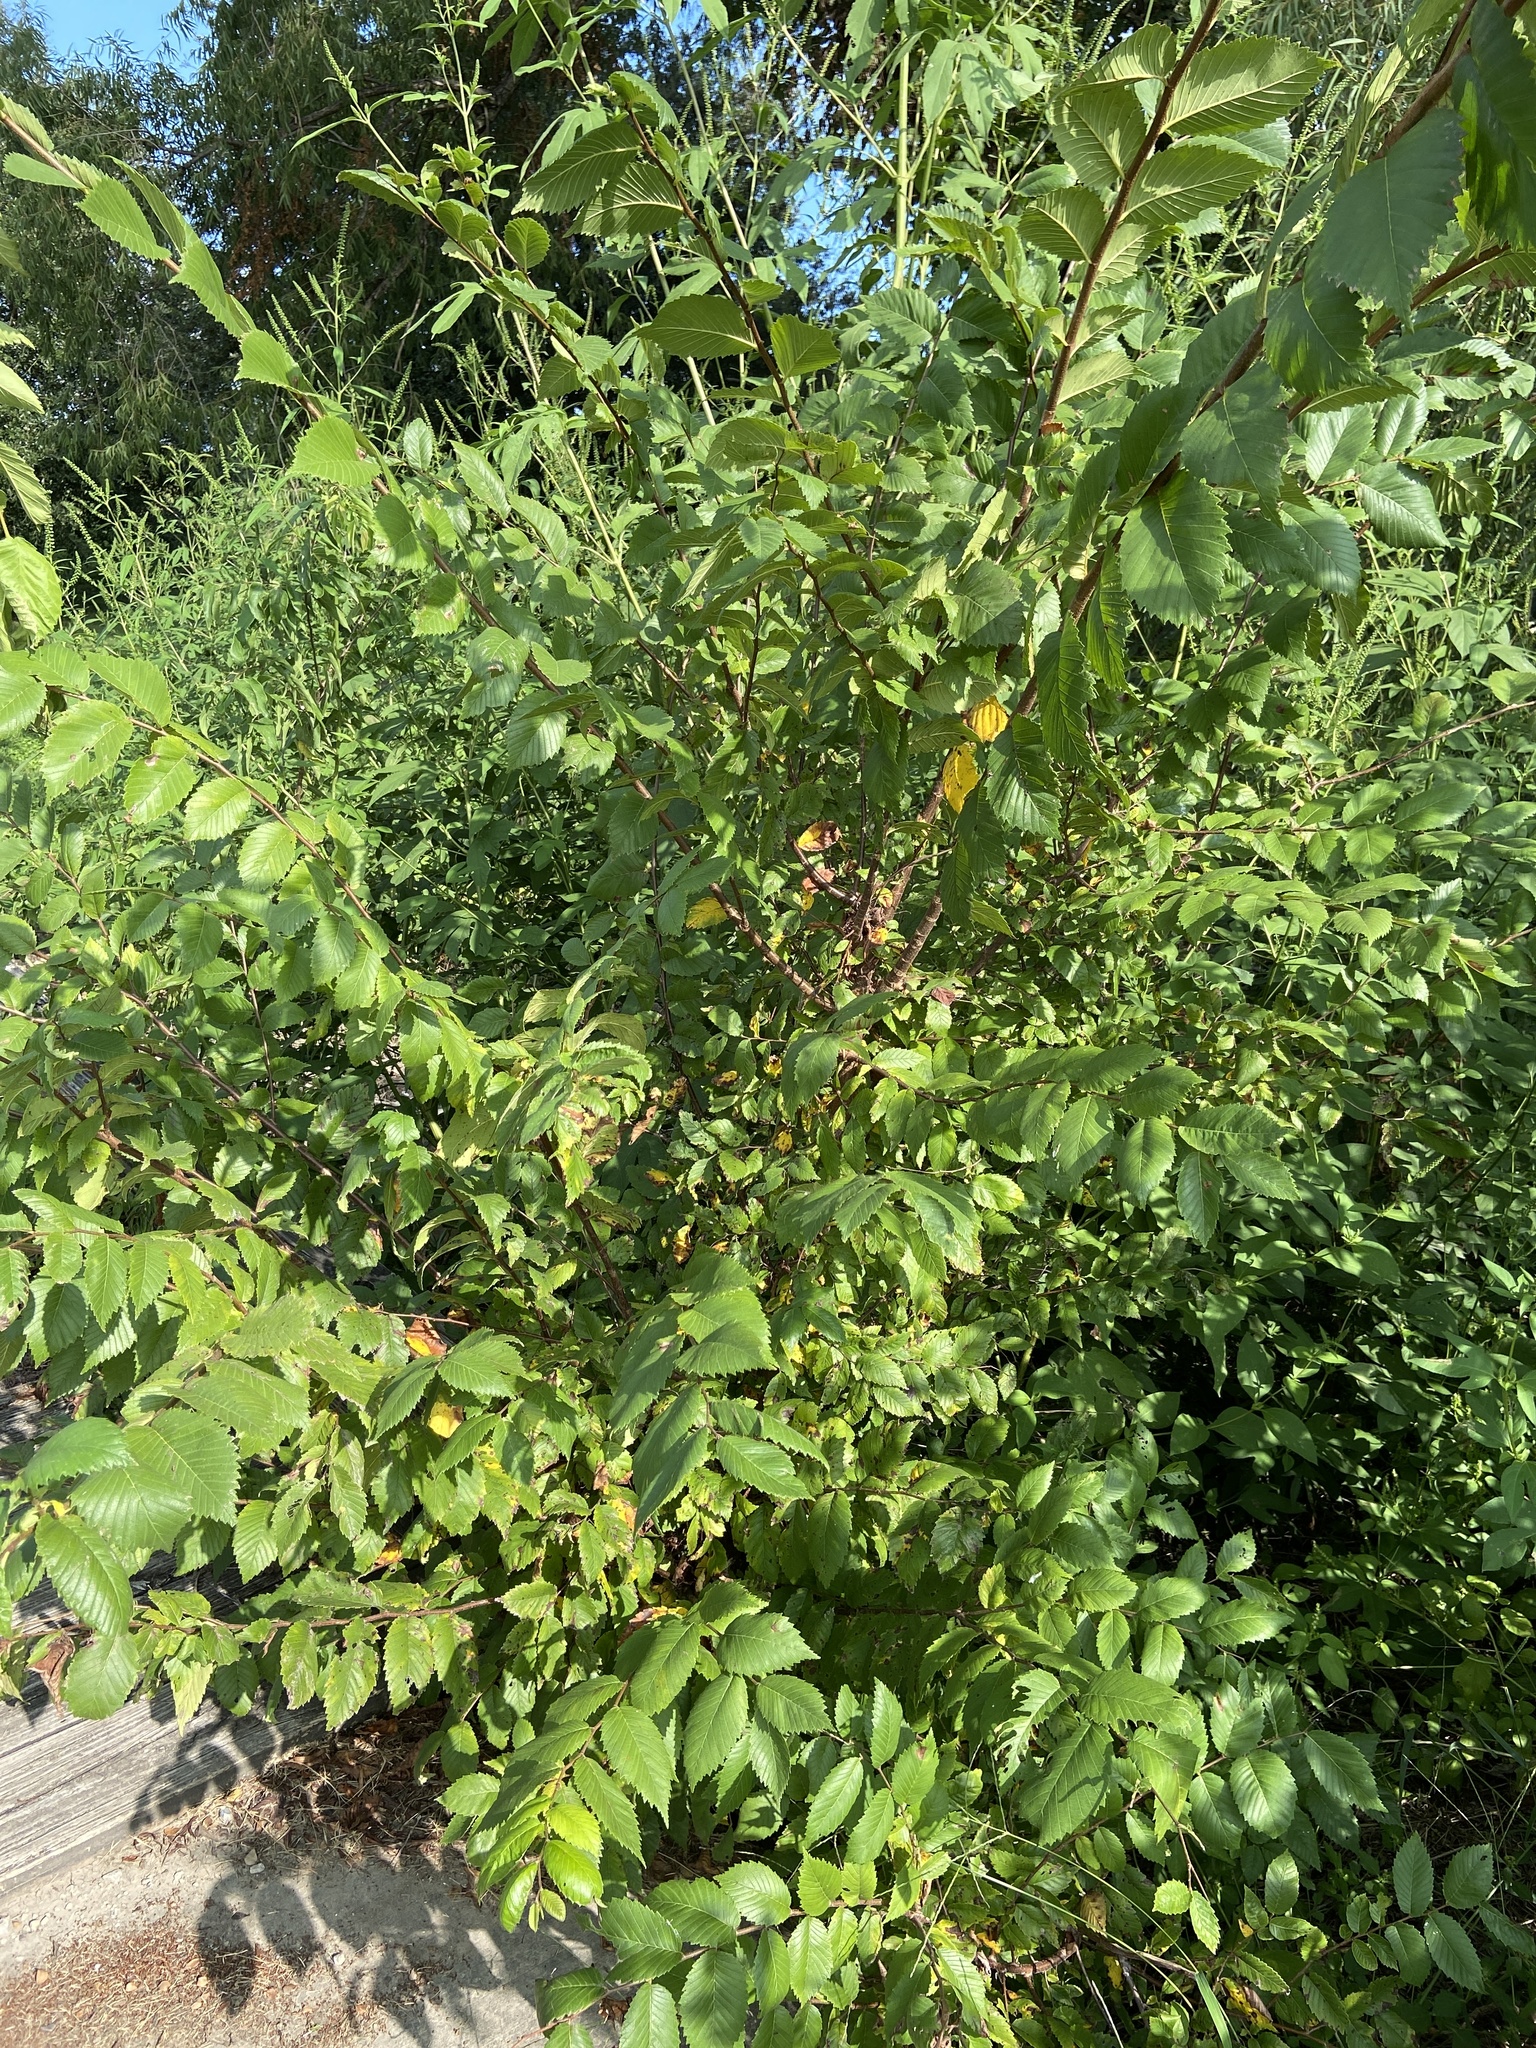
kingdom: Plantae
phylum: Tracheophyta
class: Magnoliopsida
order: Rosales
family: Ulmaceae
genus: Ulmus
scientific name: Ulmus americana
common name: American elm
